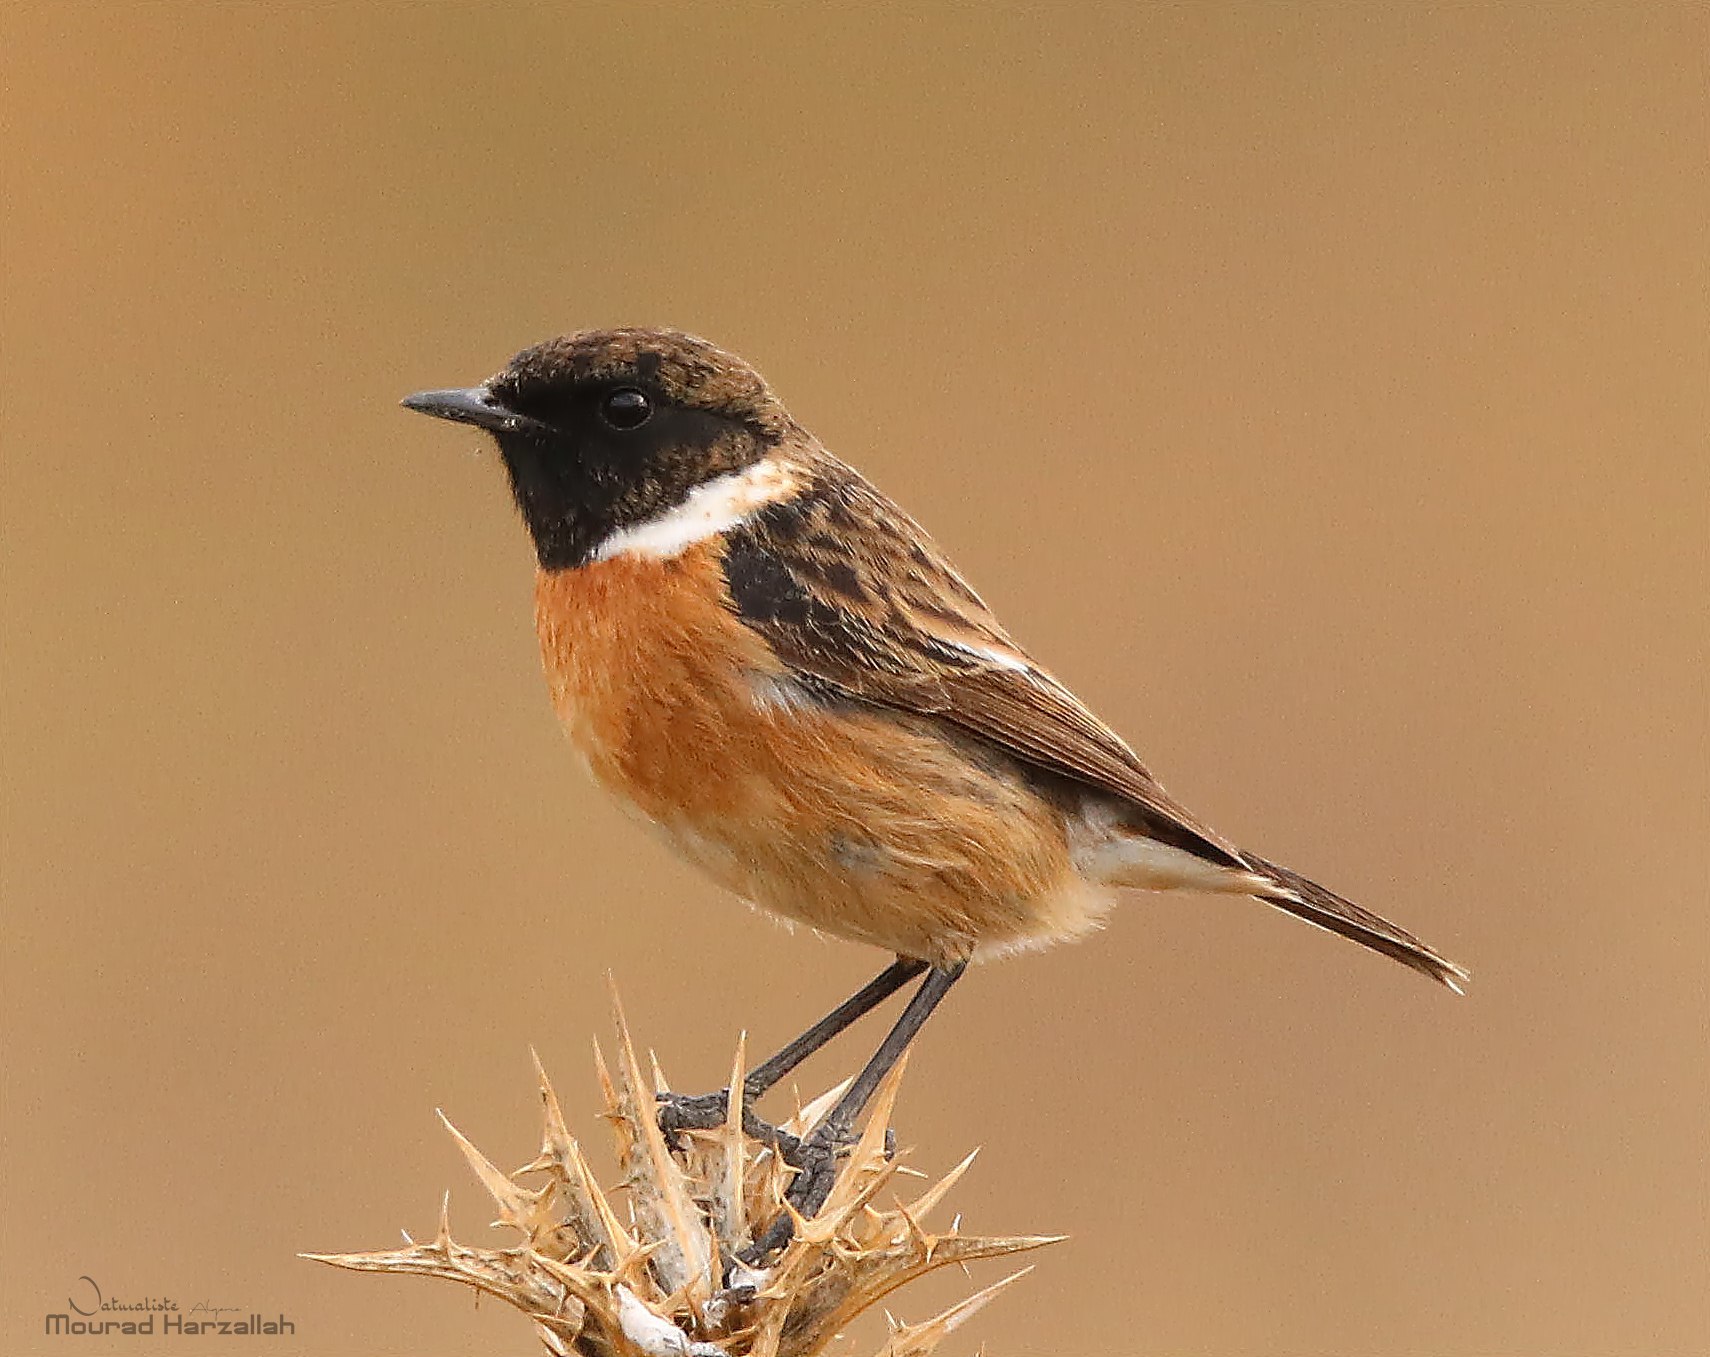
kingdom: Animalia
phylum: Chordata
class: Aves
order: Passeriformes
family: Muscicapidae
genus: Saxicola
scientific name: Saxicola rubicola
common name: European stonechat
